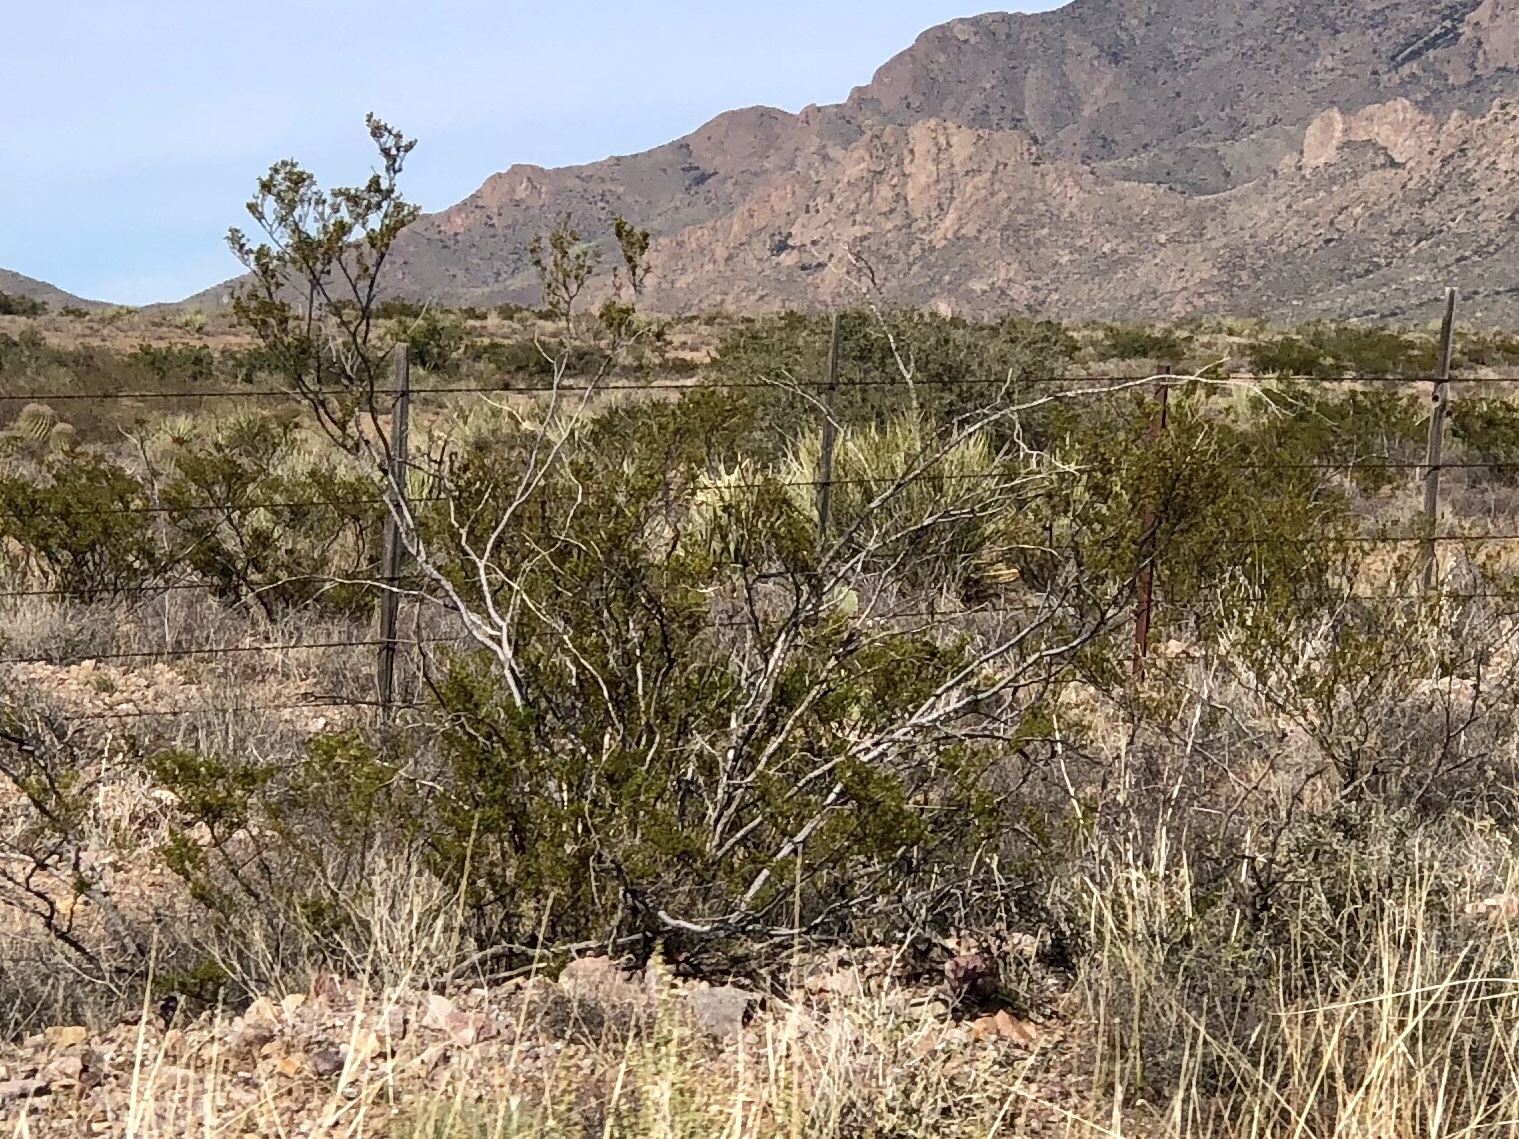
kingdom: Plantae
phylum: Tracheophyta
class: Magnoliopsida
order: Zygophyllales
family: Zygophyllaceae
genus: Larrea
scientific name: Larrea tridentata
